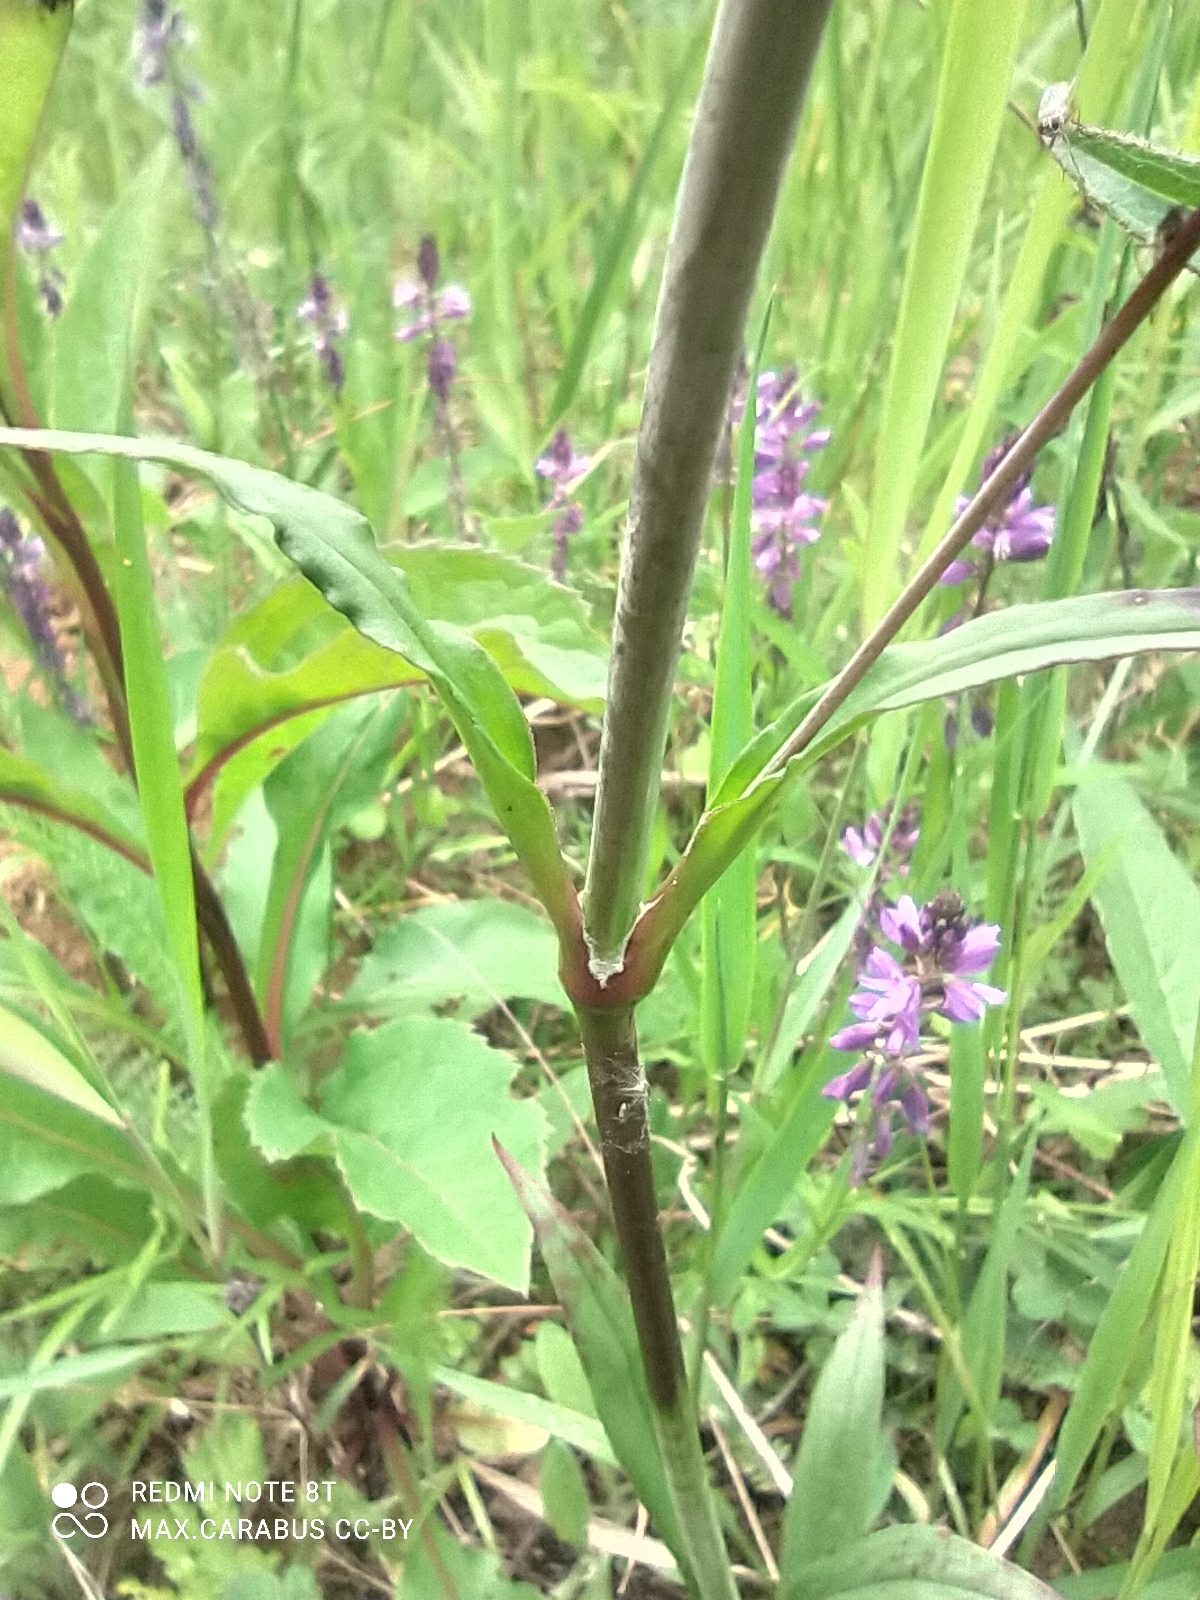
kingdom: Plantae
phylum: Tracheophyta
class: Magnoliopsida
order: Caryophyllales
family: Caryophyllaceae
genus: Viscaria
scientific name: Viscaria vulgaris
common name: Clammy campion
